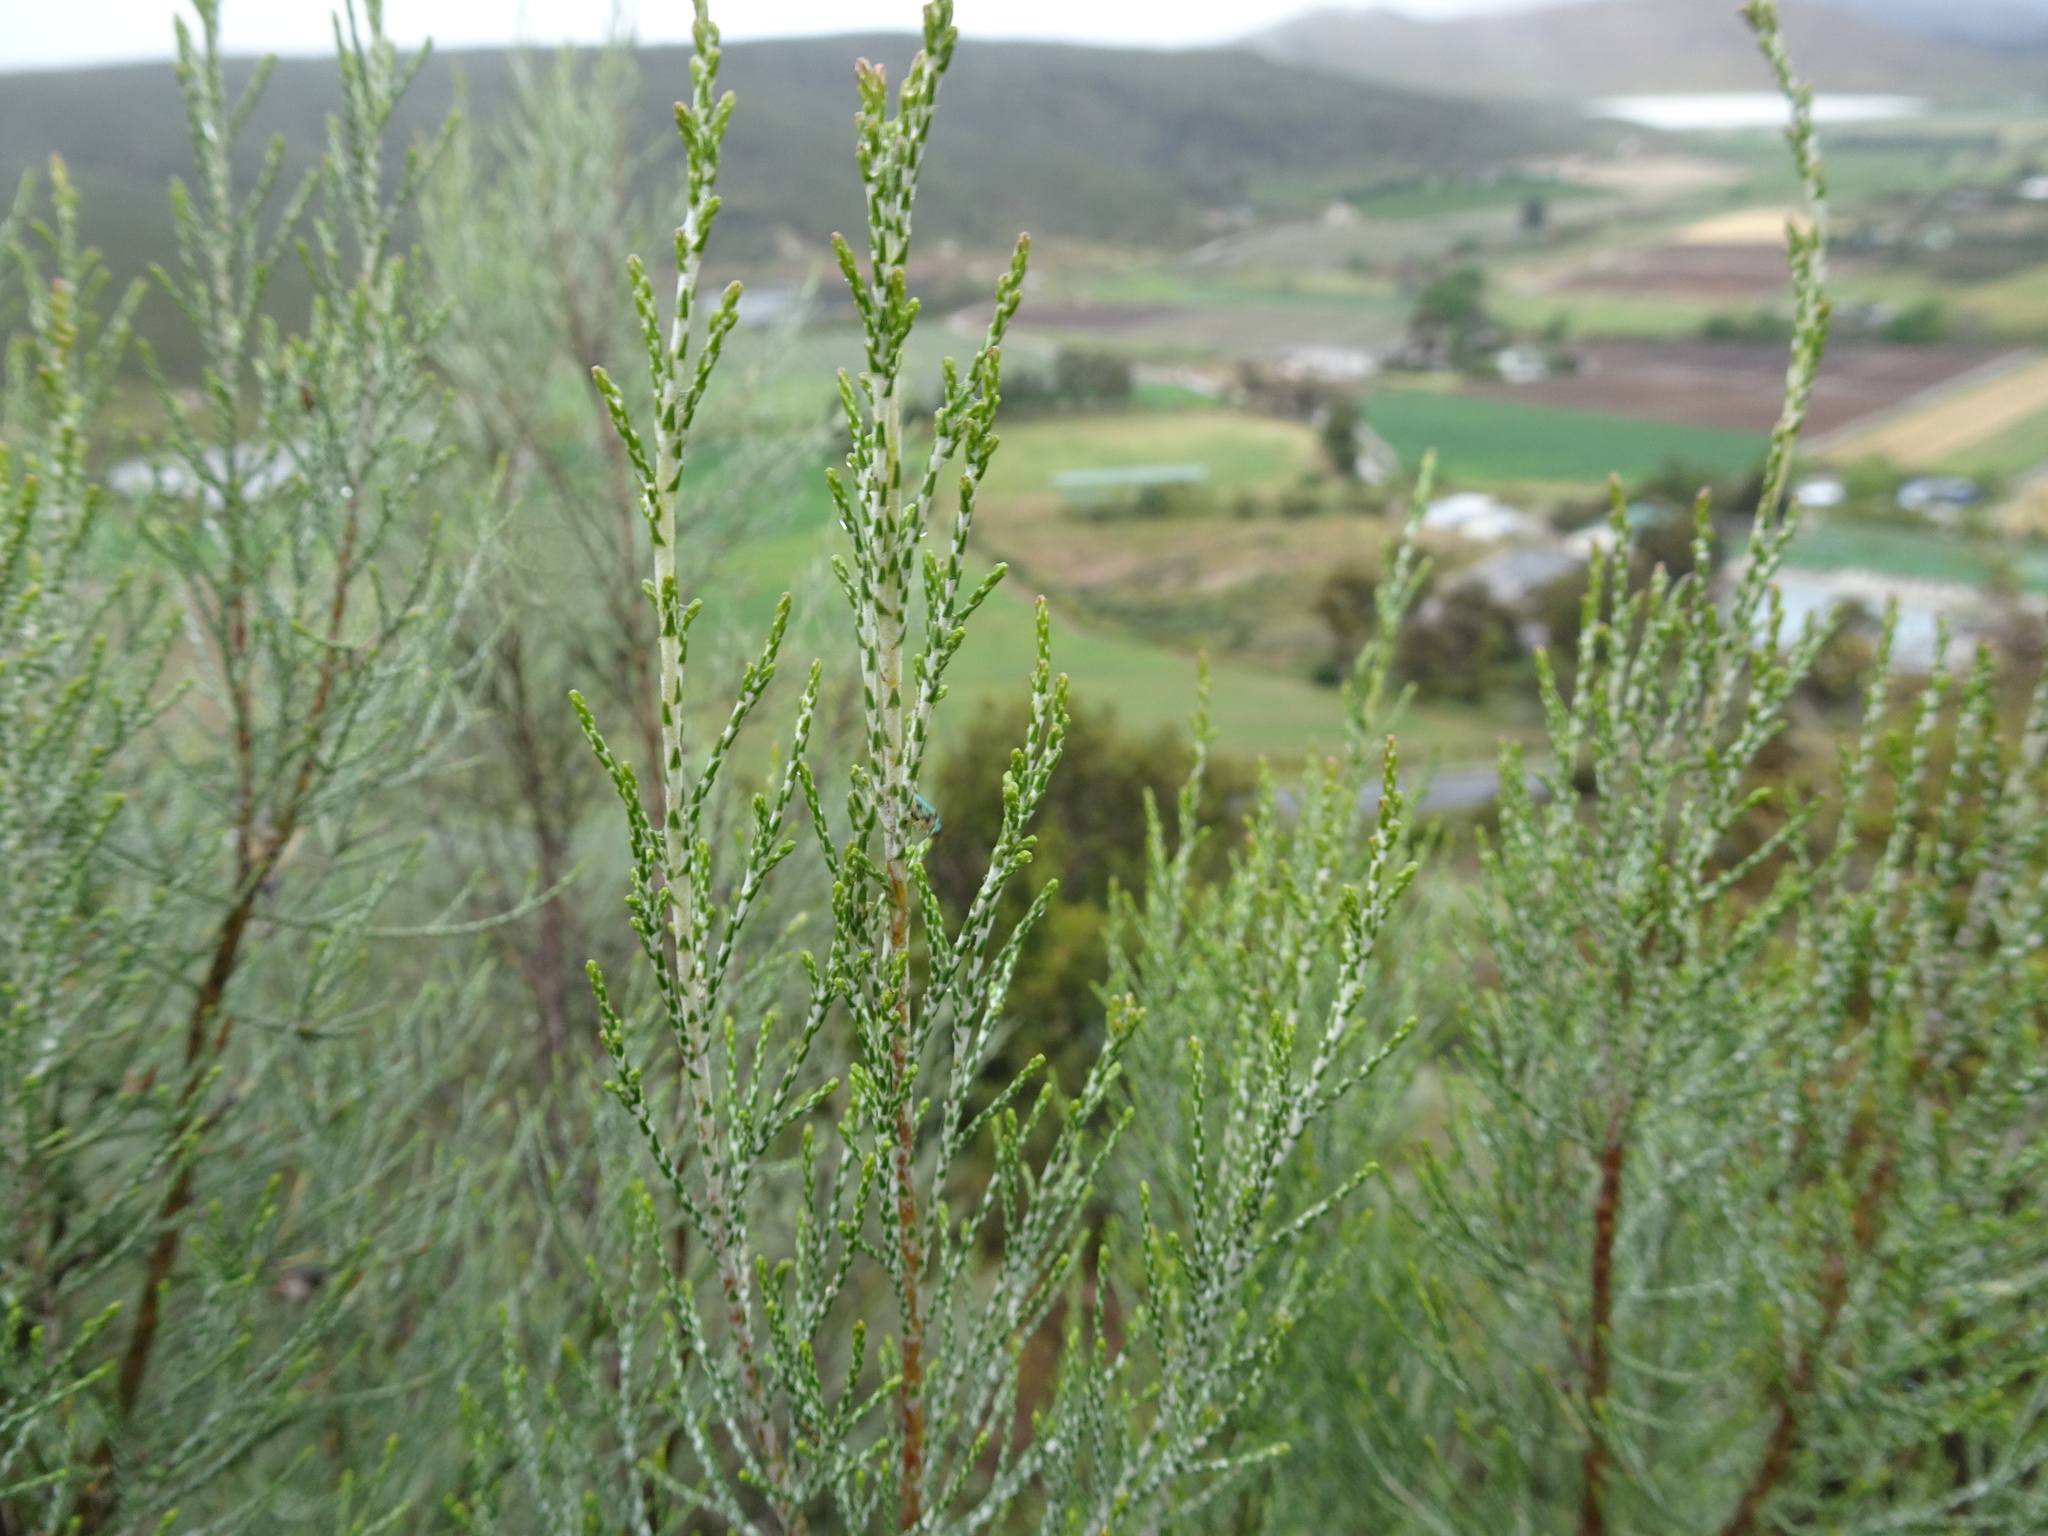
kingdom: Plantae
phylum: Tracheophyta
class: Magnoliopsida
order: Asterales
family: Asteraceae
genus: Dicerothamnus
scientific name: Dicerothamnus rhinocerotis
